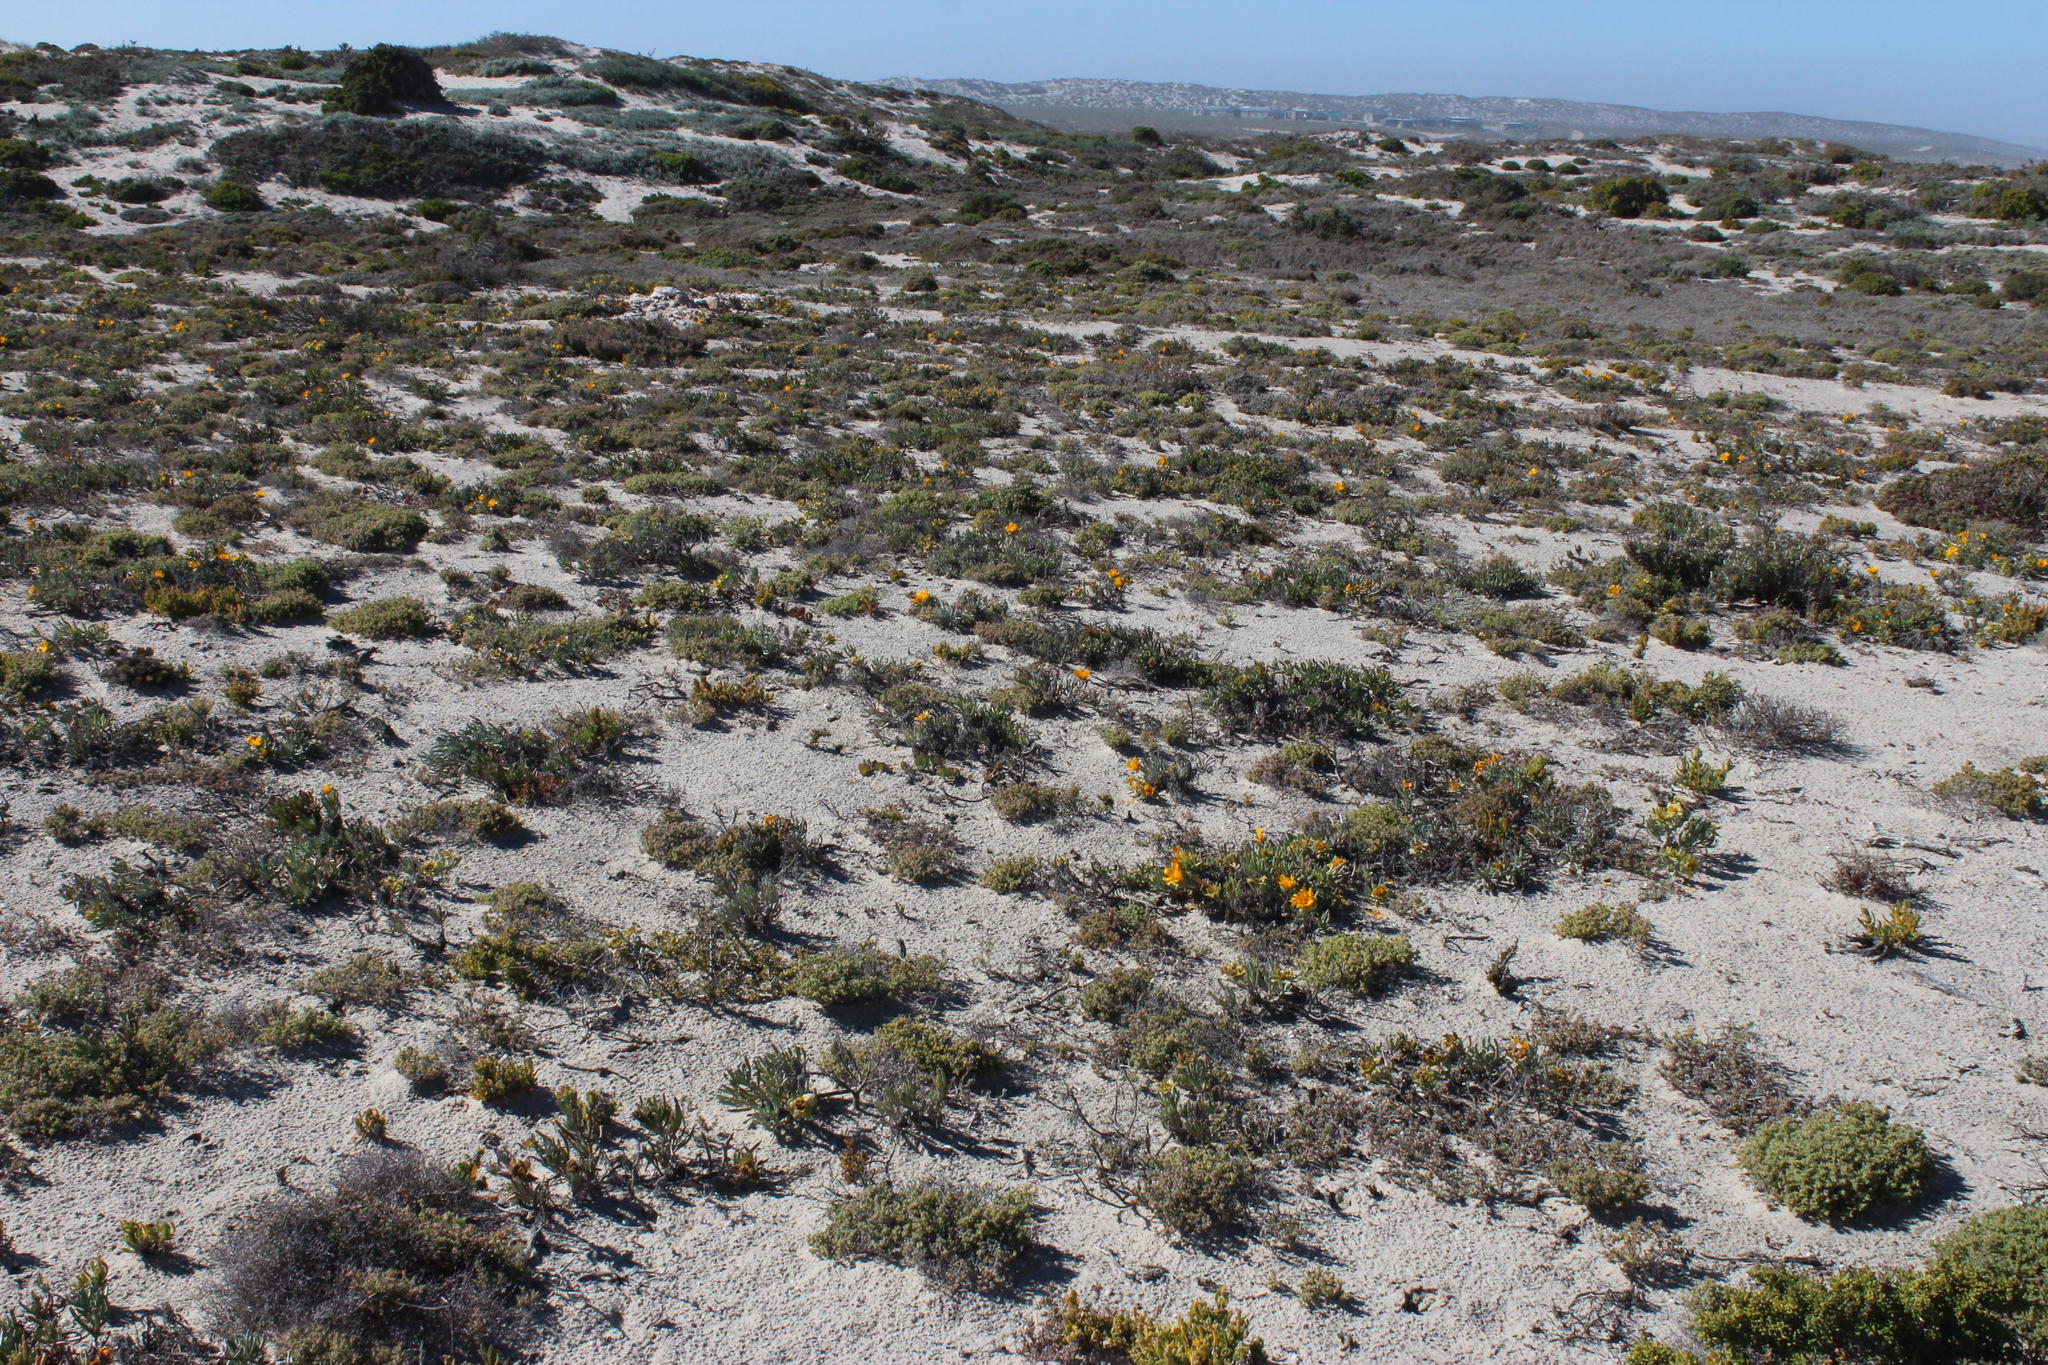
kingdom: Plantae
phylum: Tracheophyta
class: Magnoliopsida
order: Asterales
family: Asteraceae
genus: Didelta
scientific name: Didelta carnosa
